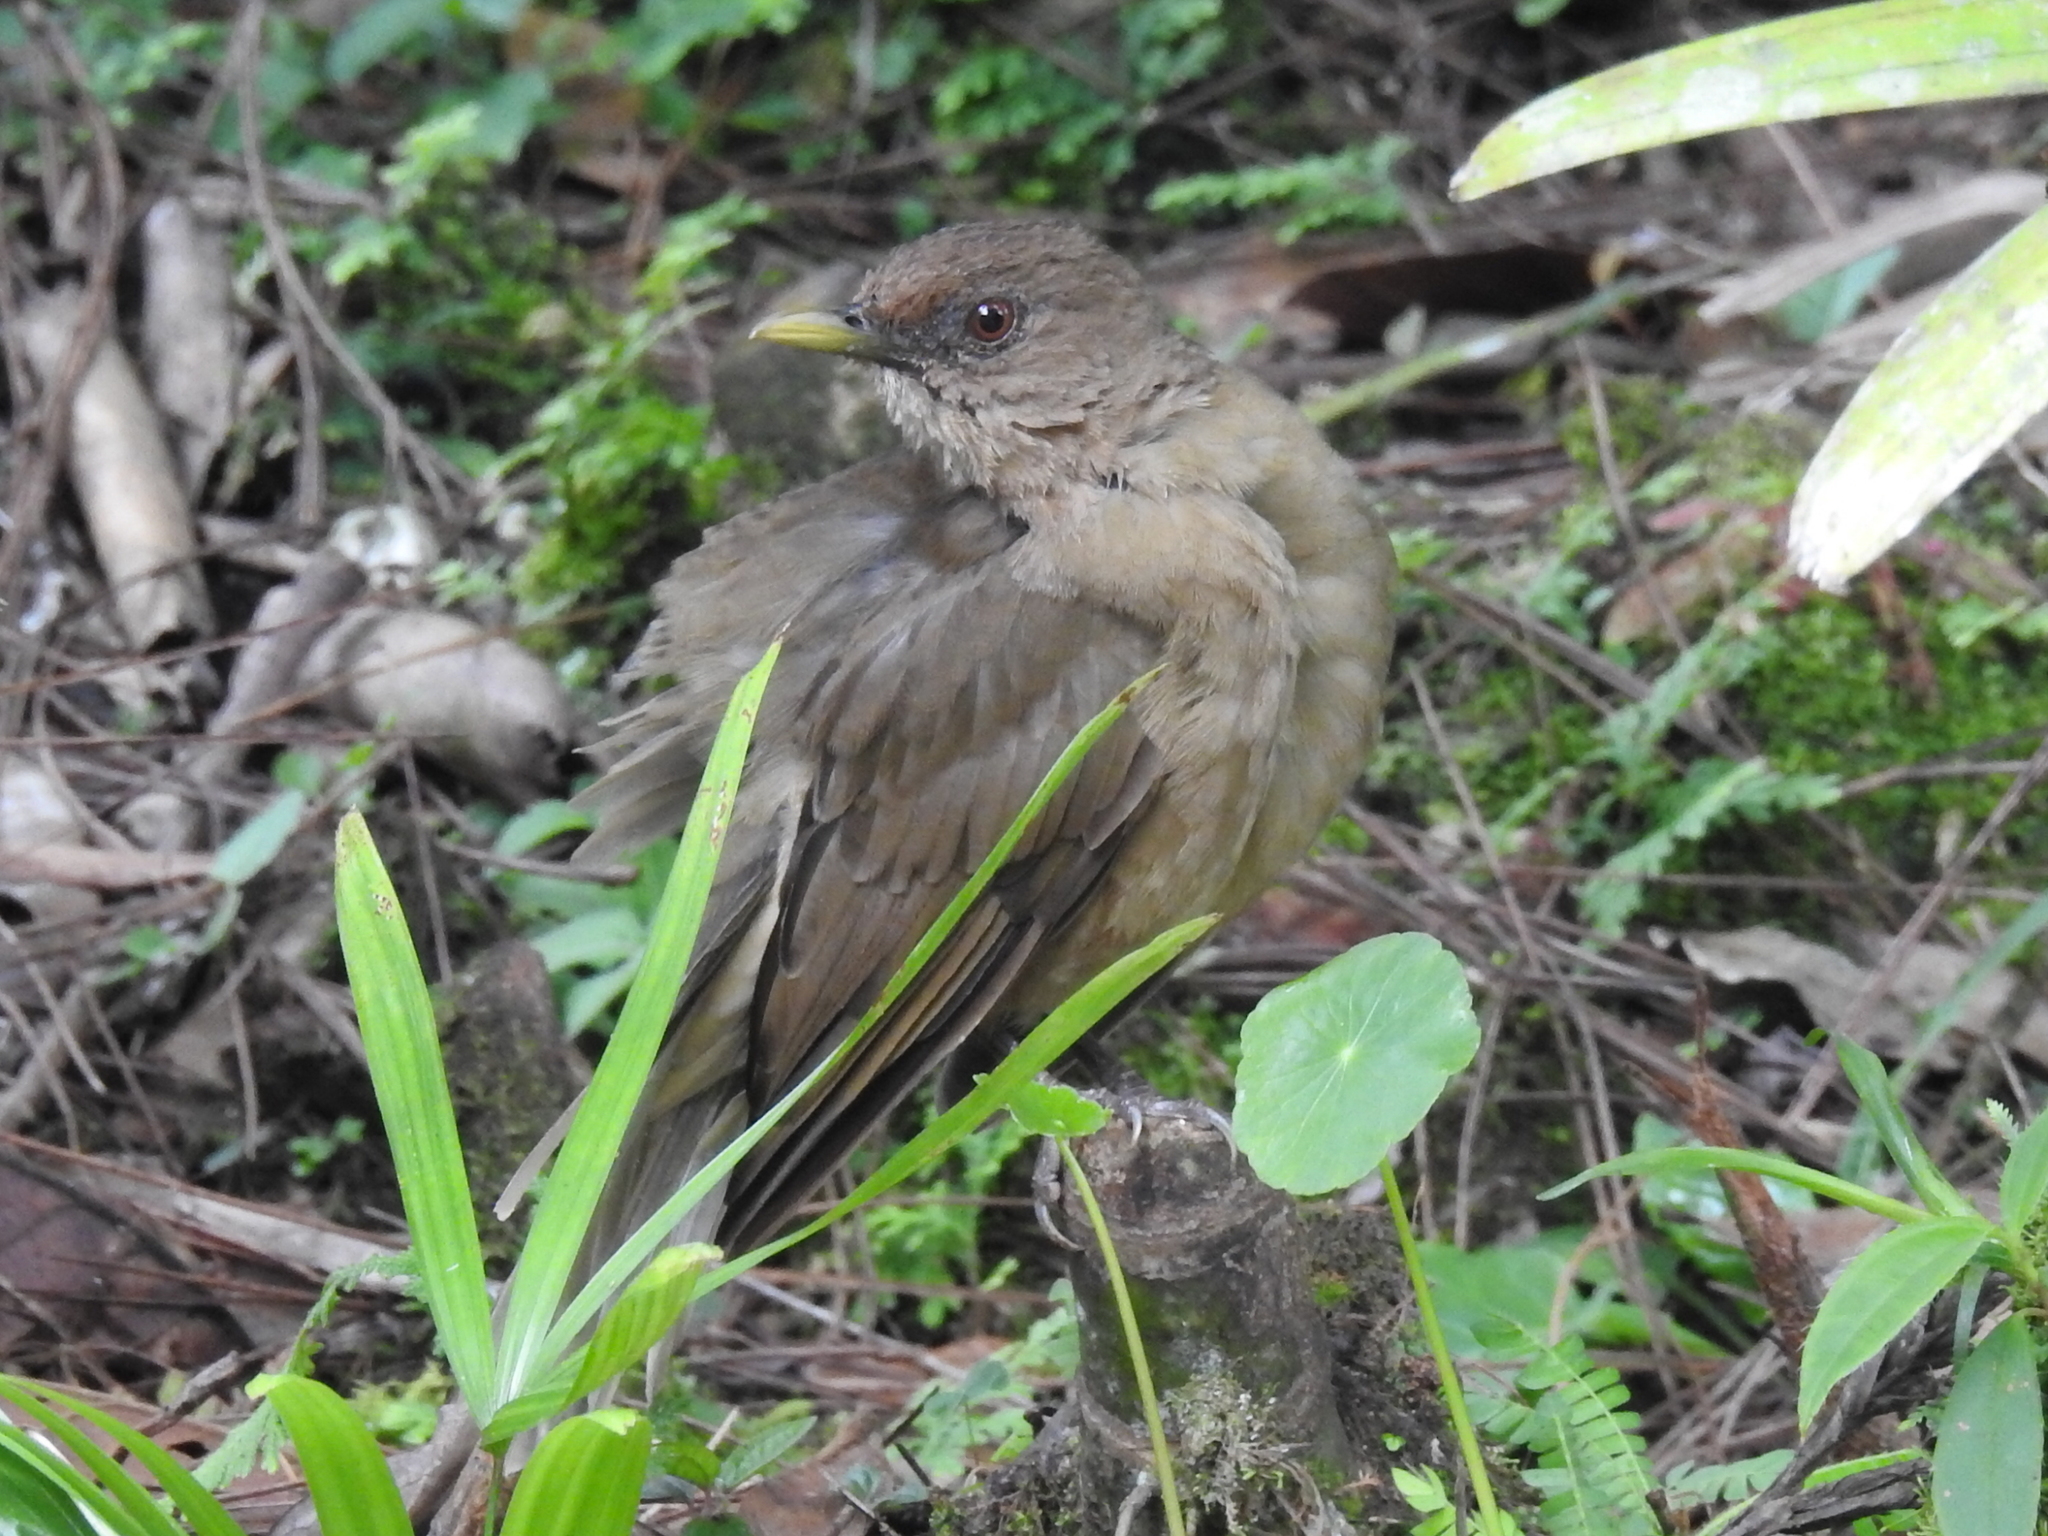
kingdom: Animalia
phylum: Chordata
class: Aves
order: Passeriformes
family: Turdidae
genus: Turdus
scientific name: Turdus grayi
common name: Clay-colored thrush
